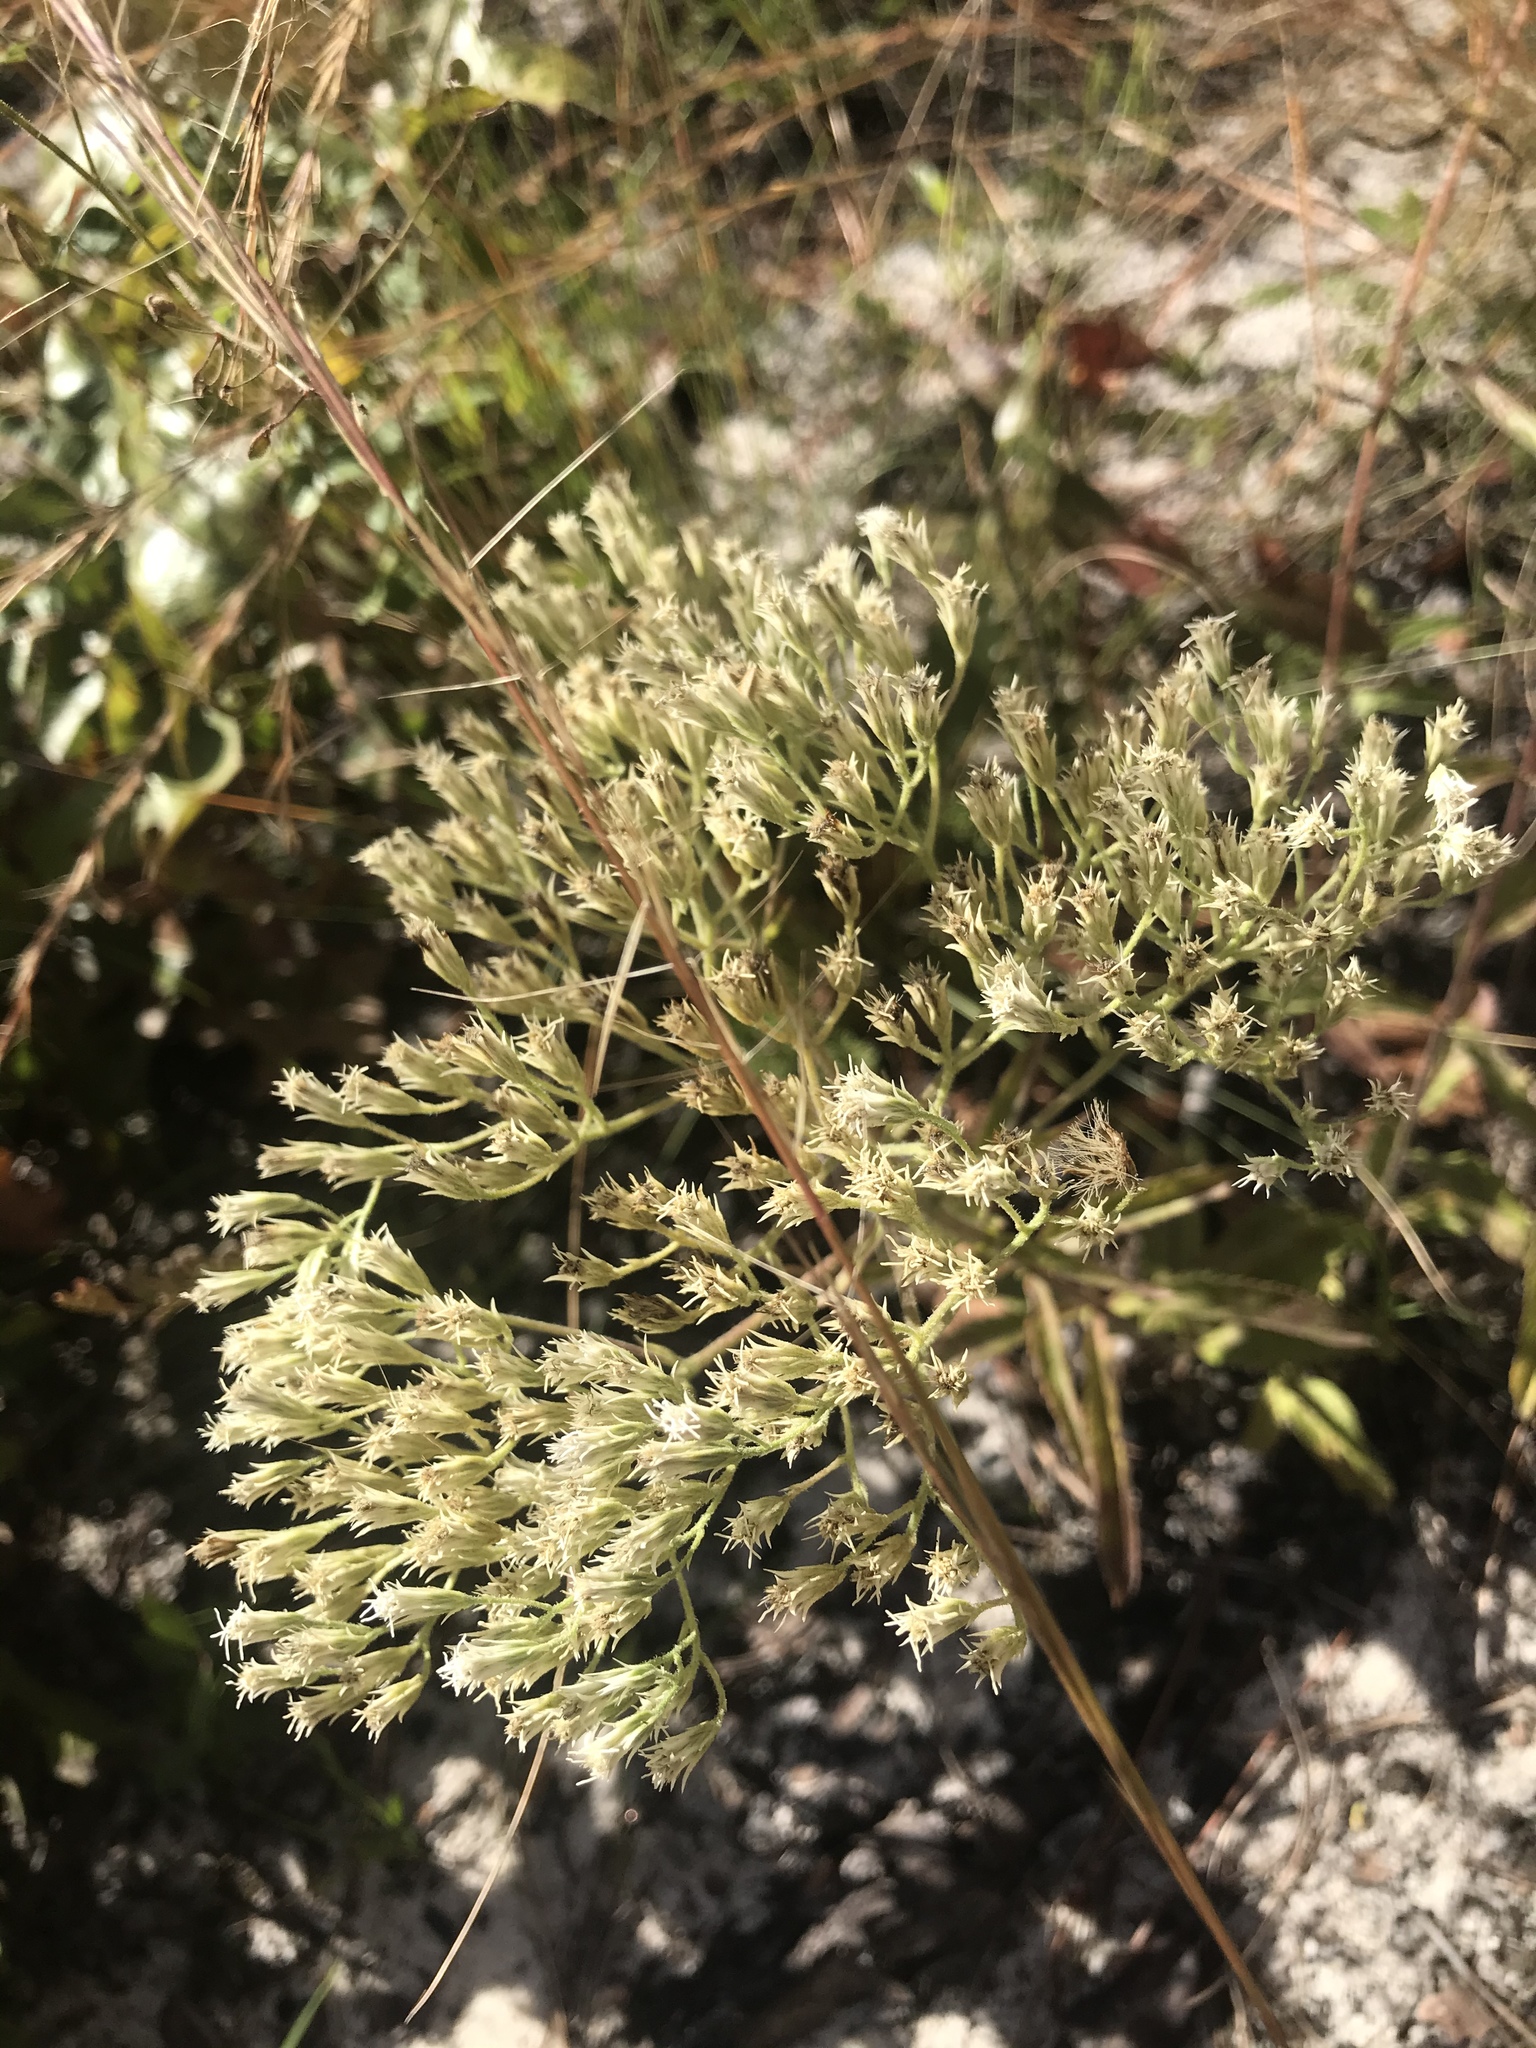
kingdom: Plantae
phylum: Tracheophyta
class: Magnoliopsida
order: Asterales
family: Asteraceae
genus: Eupatorium
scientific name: Eupatorium album
